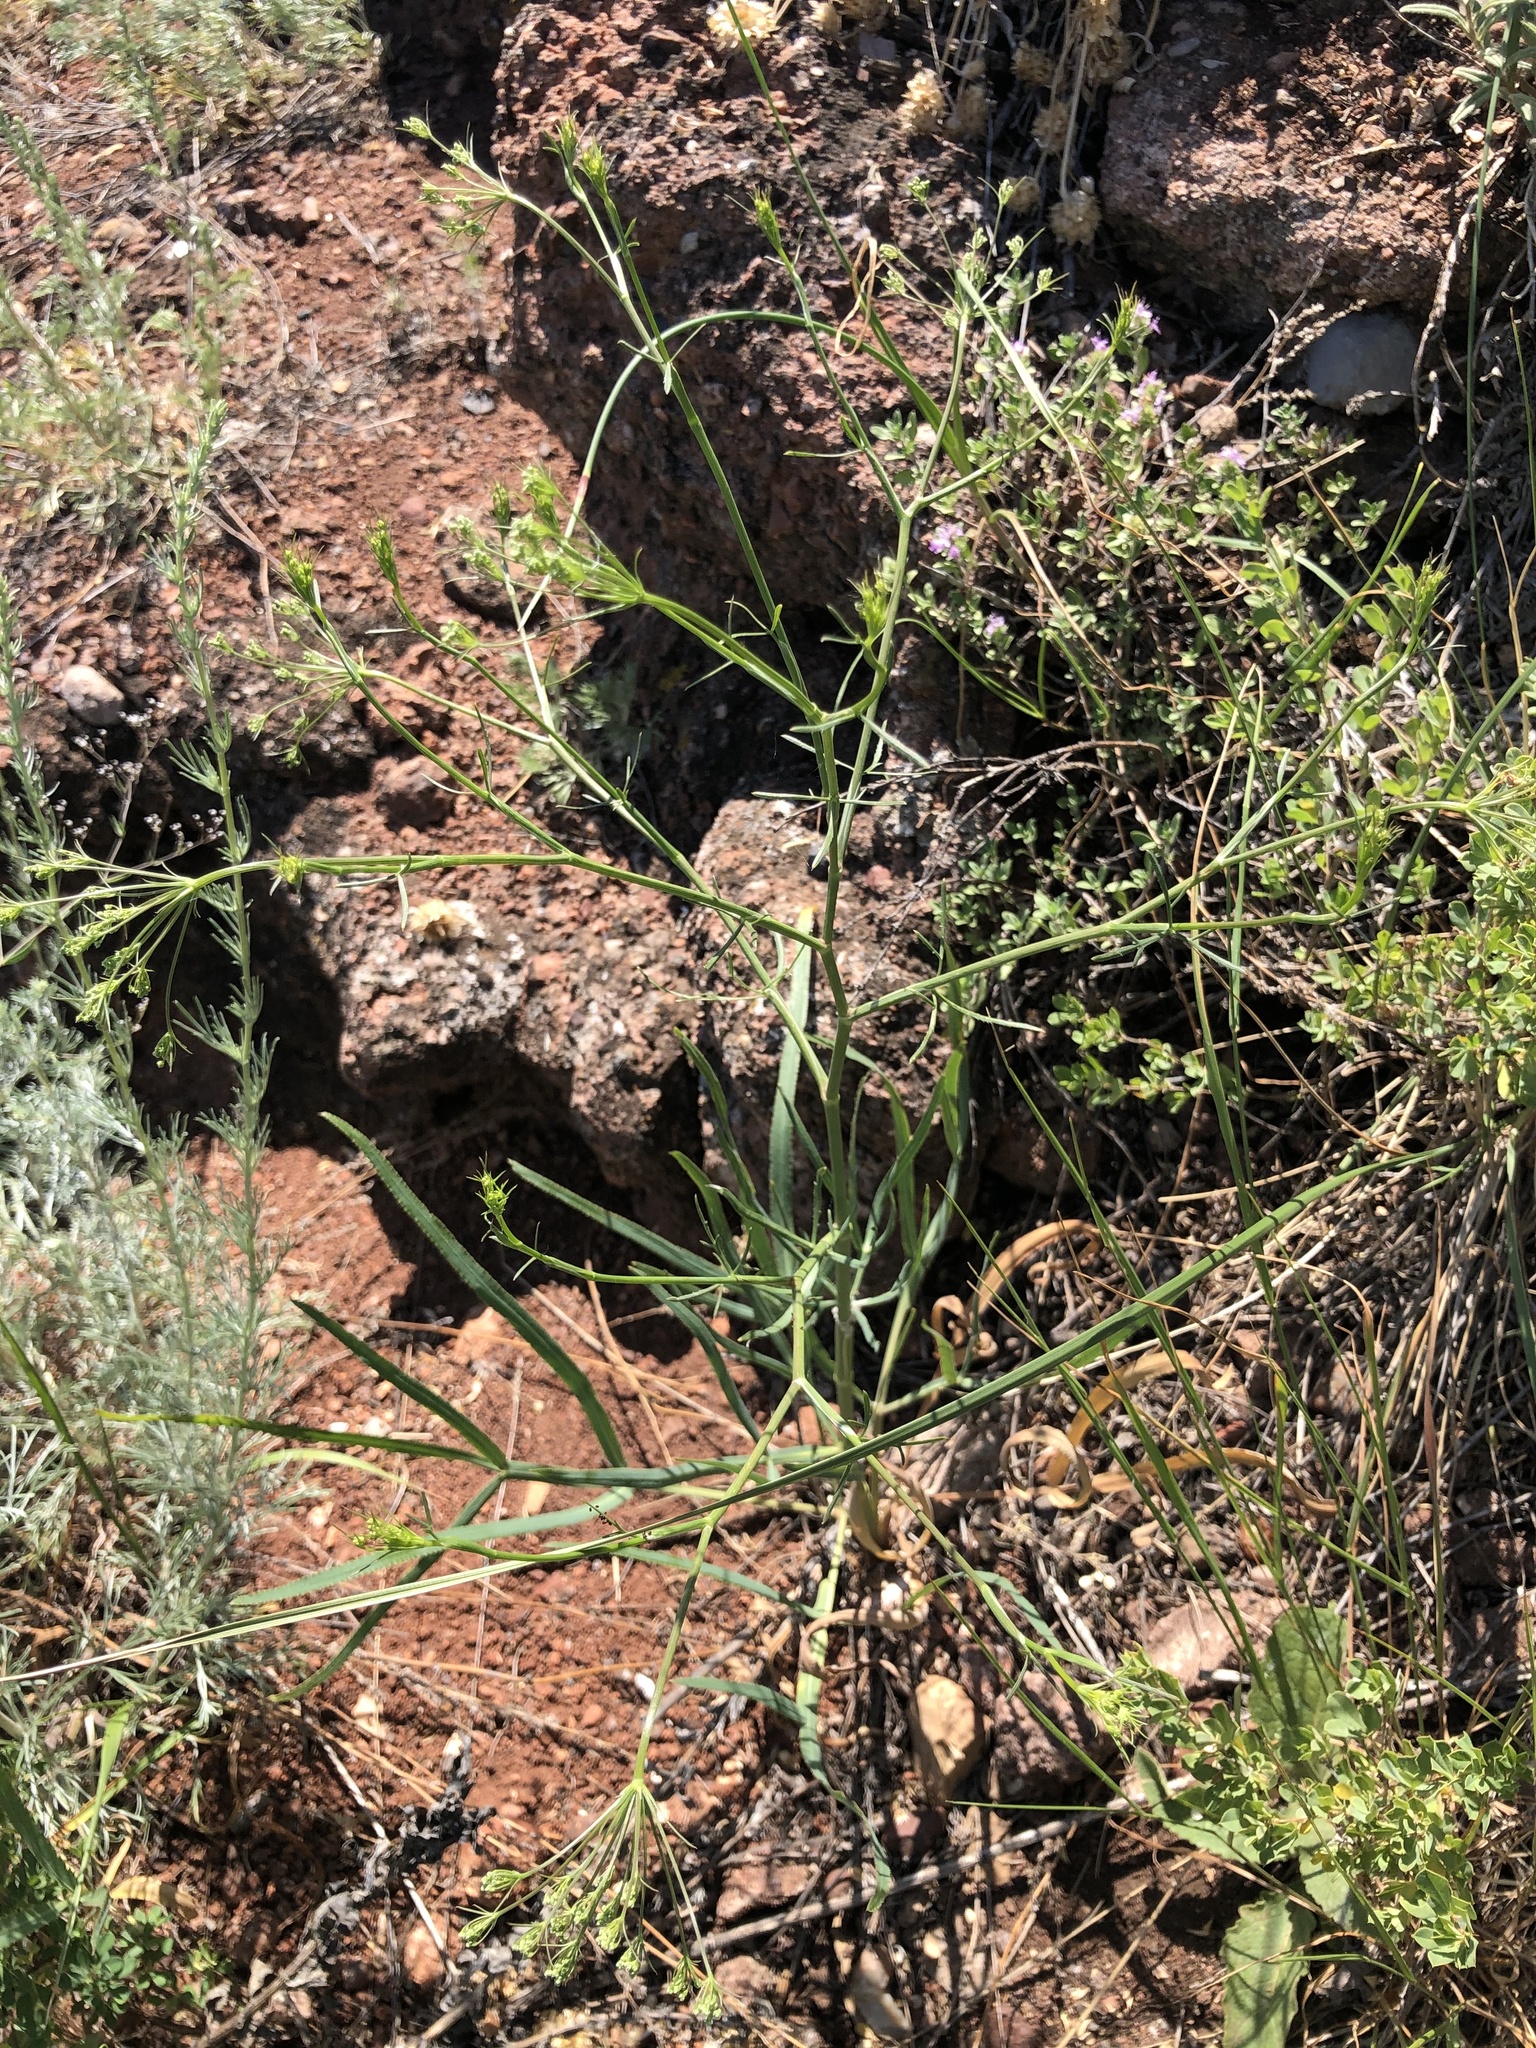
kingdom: Plantae
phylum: Tracheophyta
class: Magnoliopsida
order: Apiales
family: Apiaceae
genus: Falcaria
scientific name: Falcaria vulgaris
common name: Longleaf
